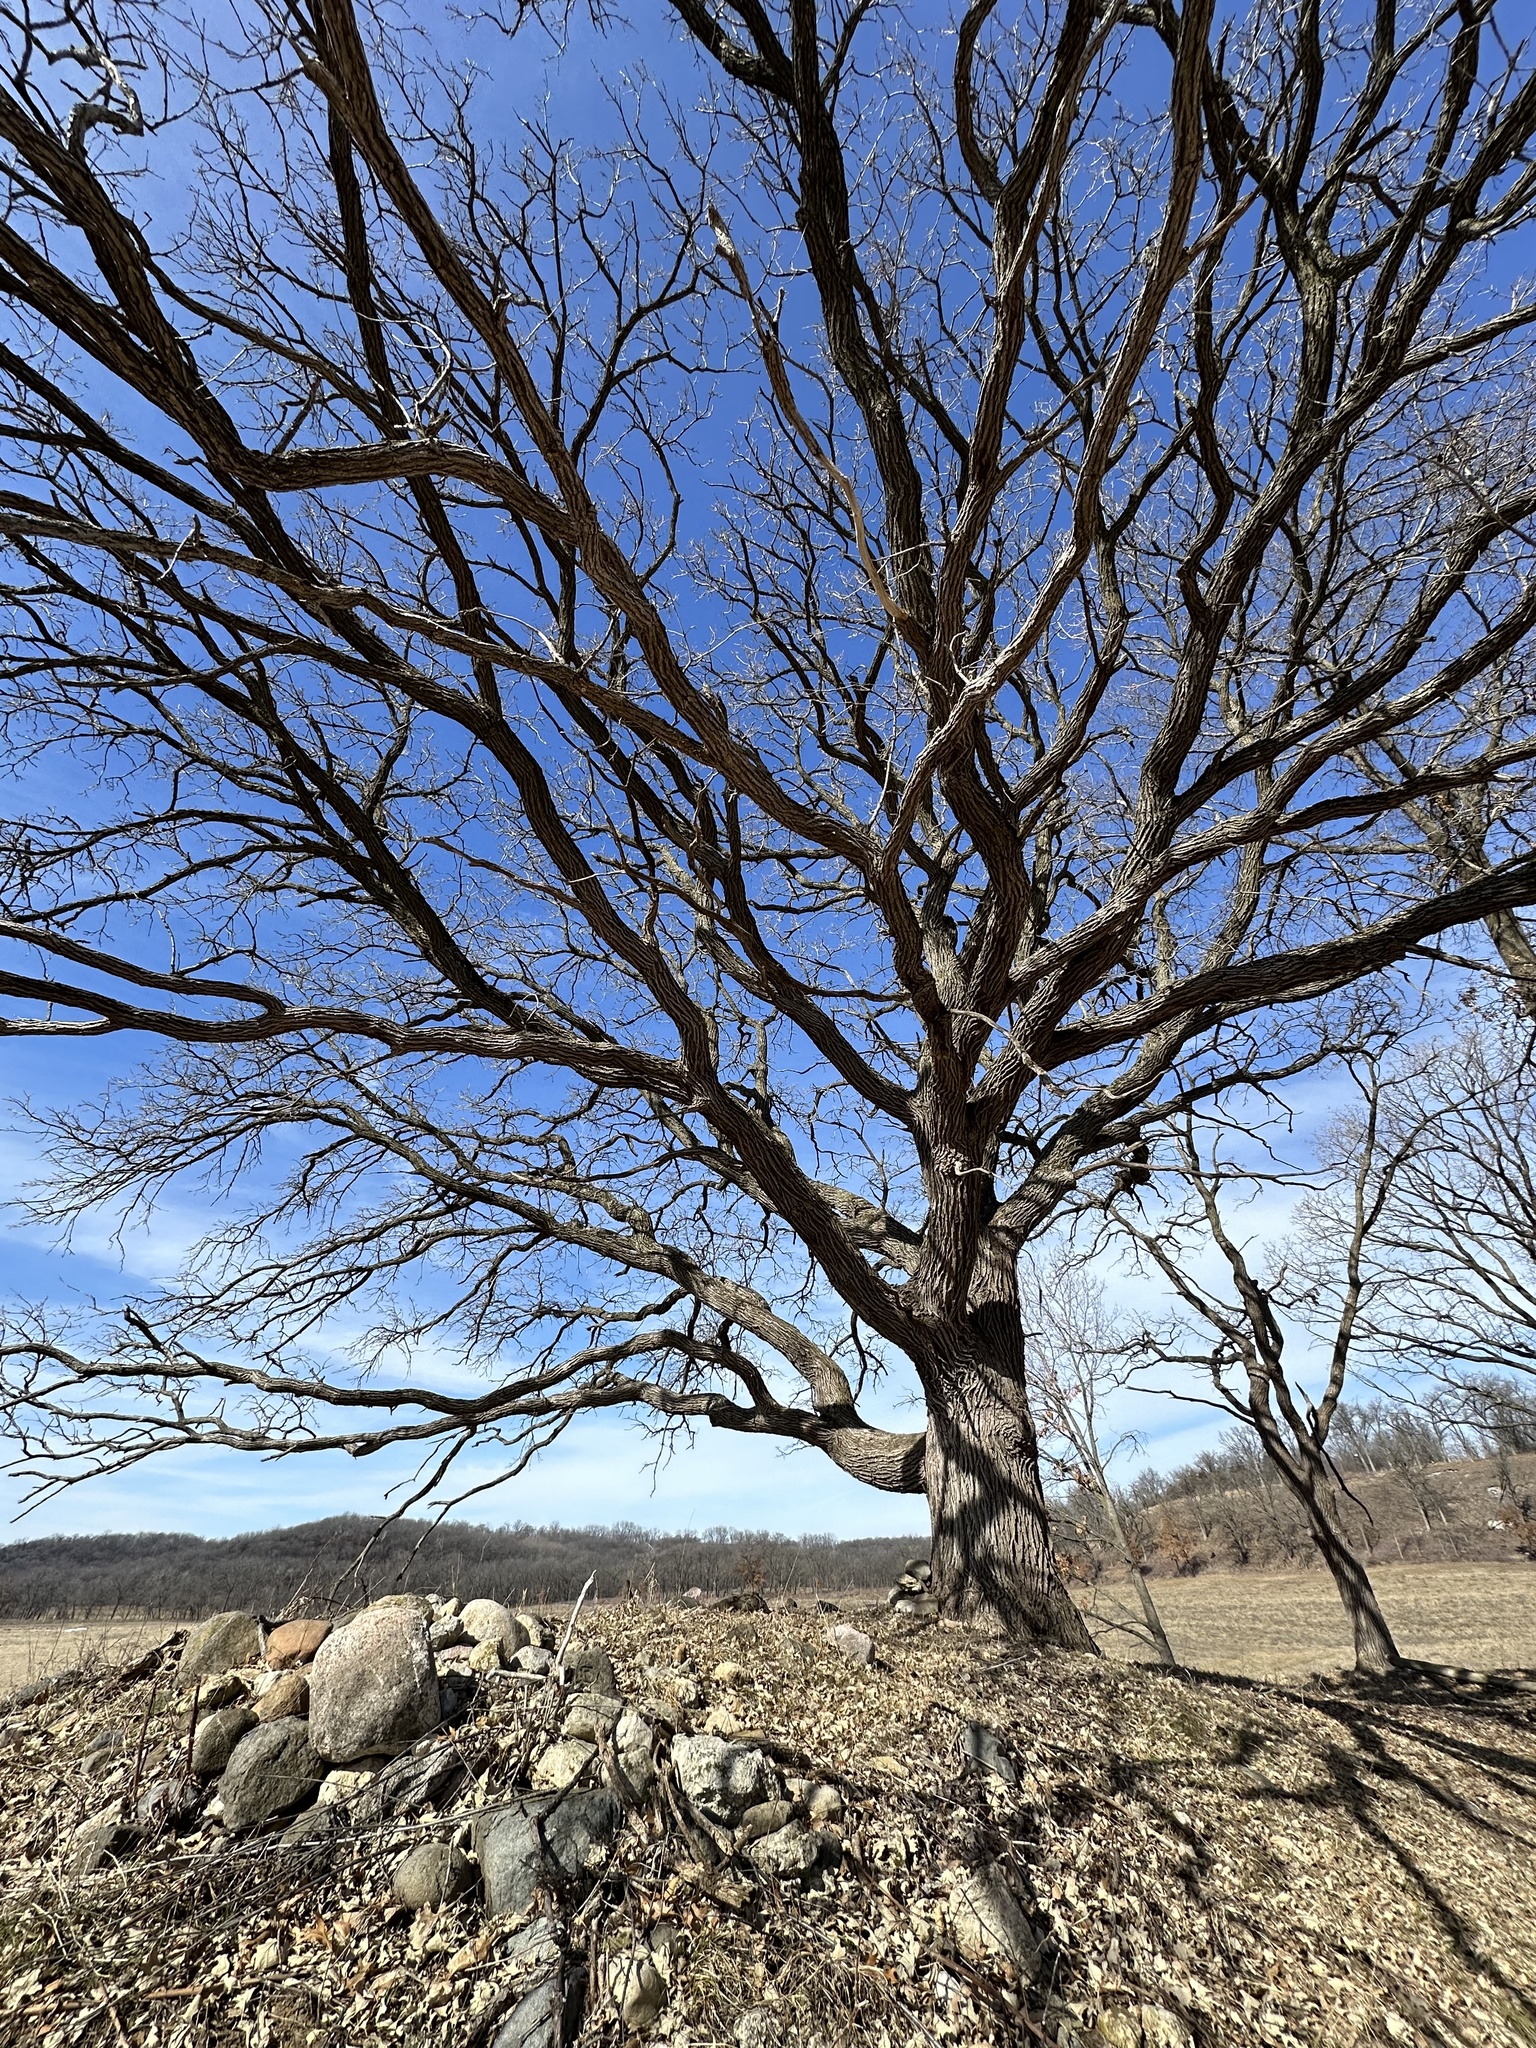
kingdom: Plantae
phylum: Tracheophyta
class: Magnoliopsida
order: Fagales
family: Fagaceae
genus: Quercus
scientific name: Quercus macrocarpa
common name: Bur oak
